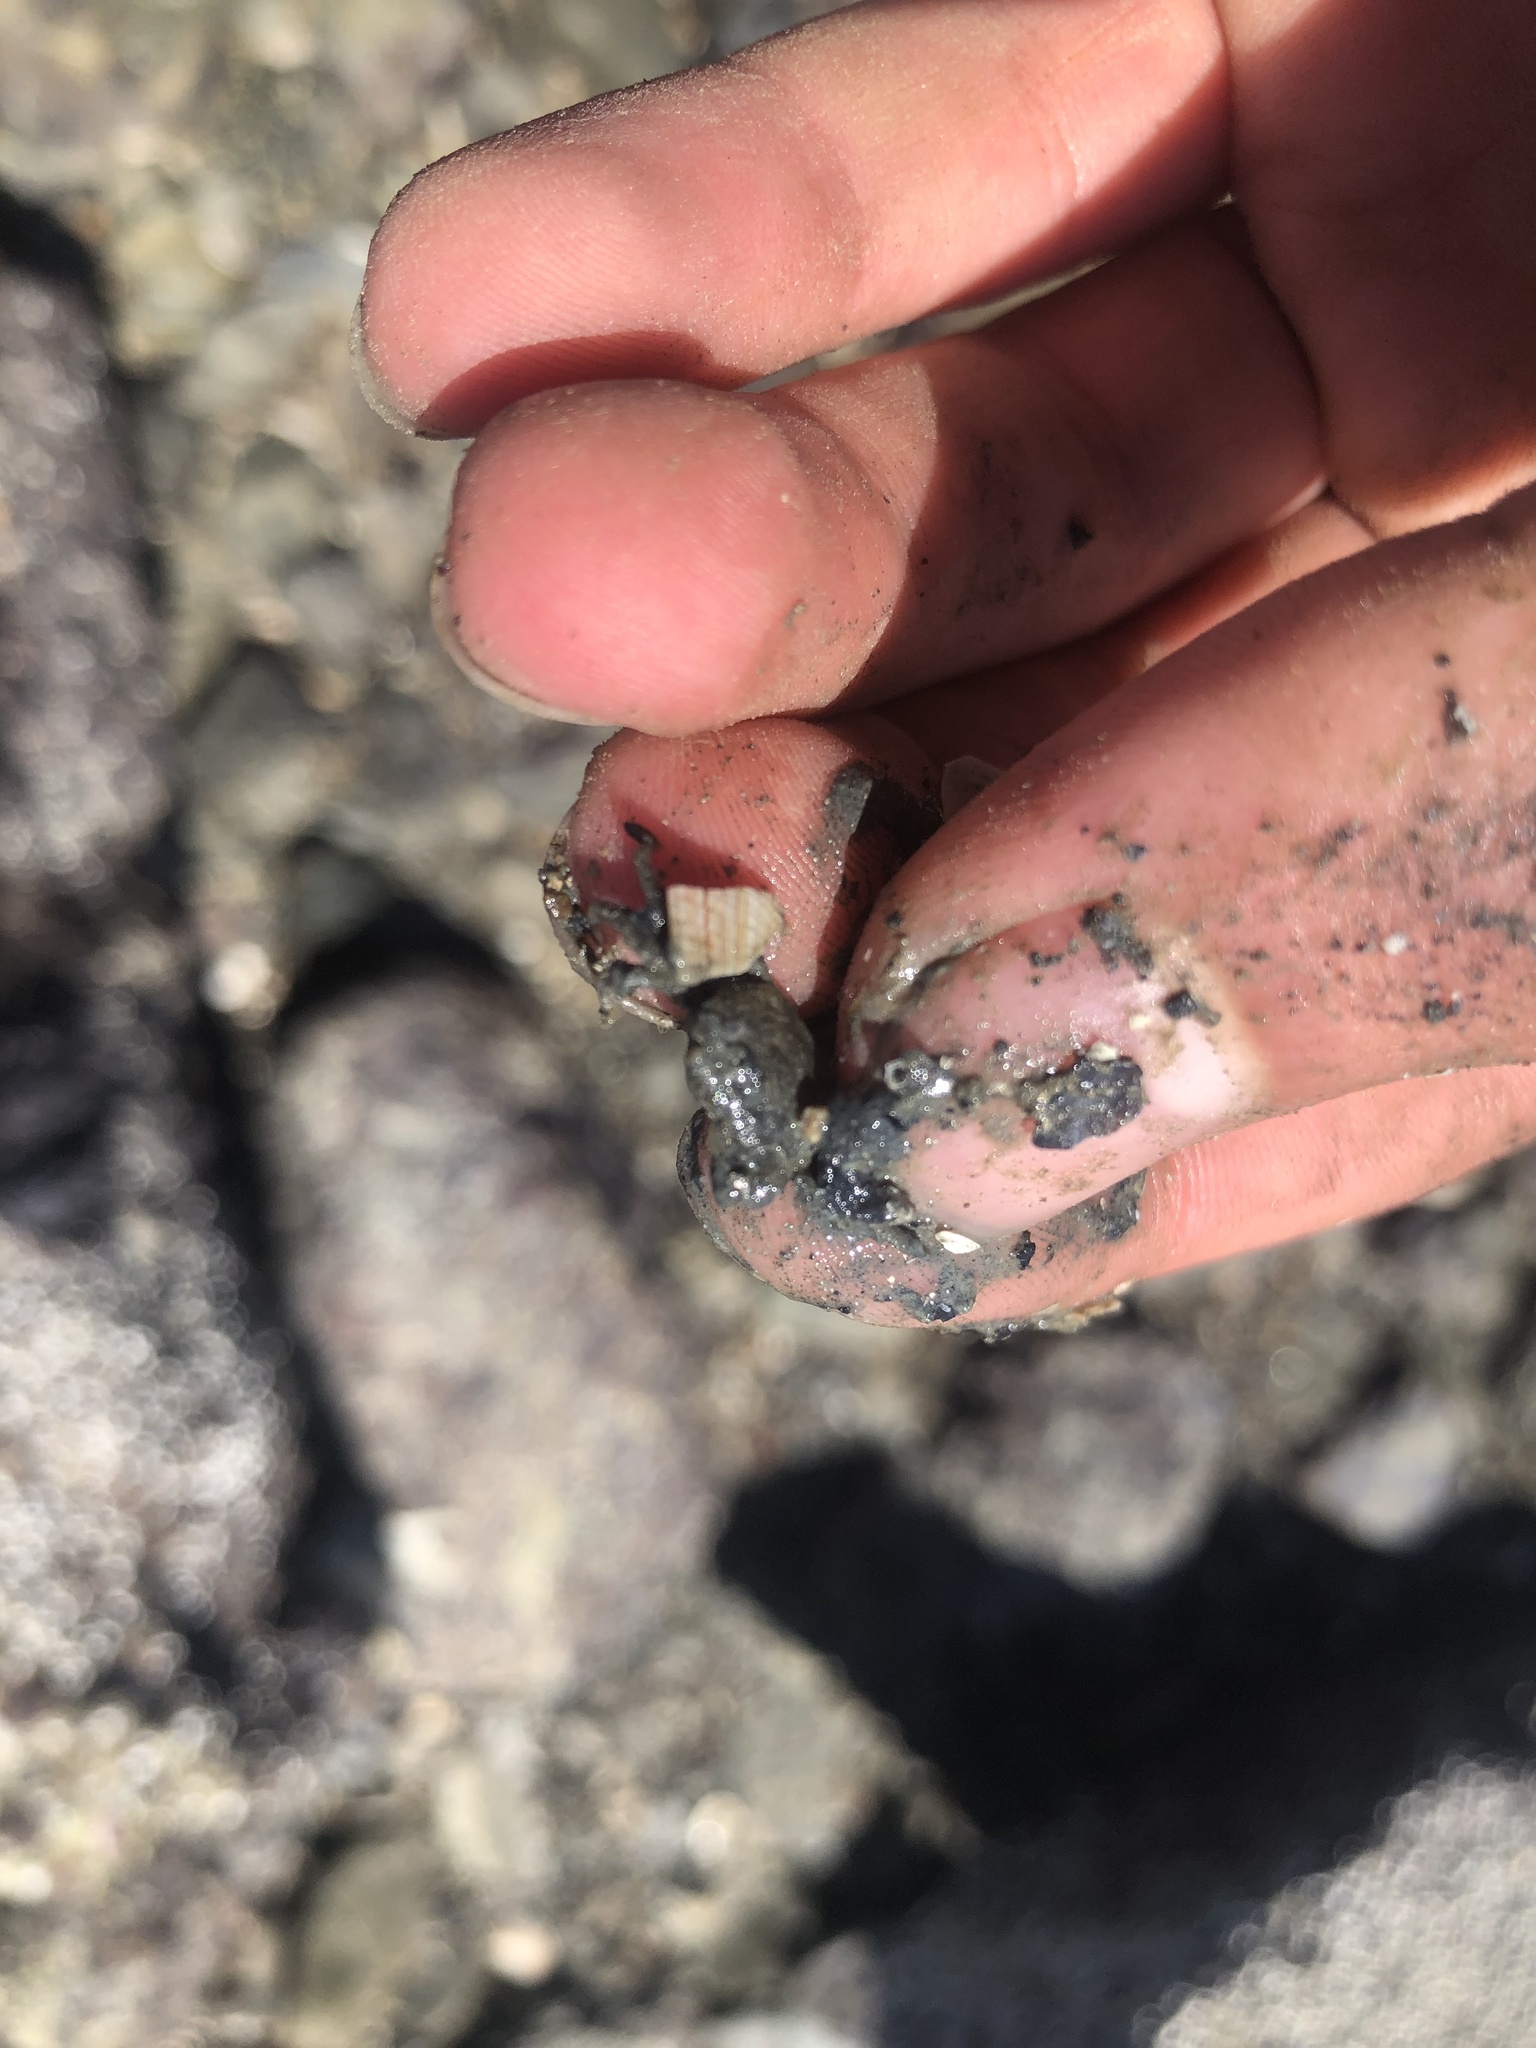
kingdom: Animalia
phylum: Arthropoda
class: Malacostraca
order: Decapoda
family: Varunidae
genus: Hemigrapsus
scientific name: Hemigrapsus oregonensis
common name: Yellow shore crab
